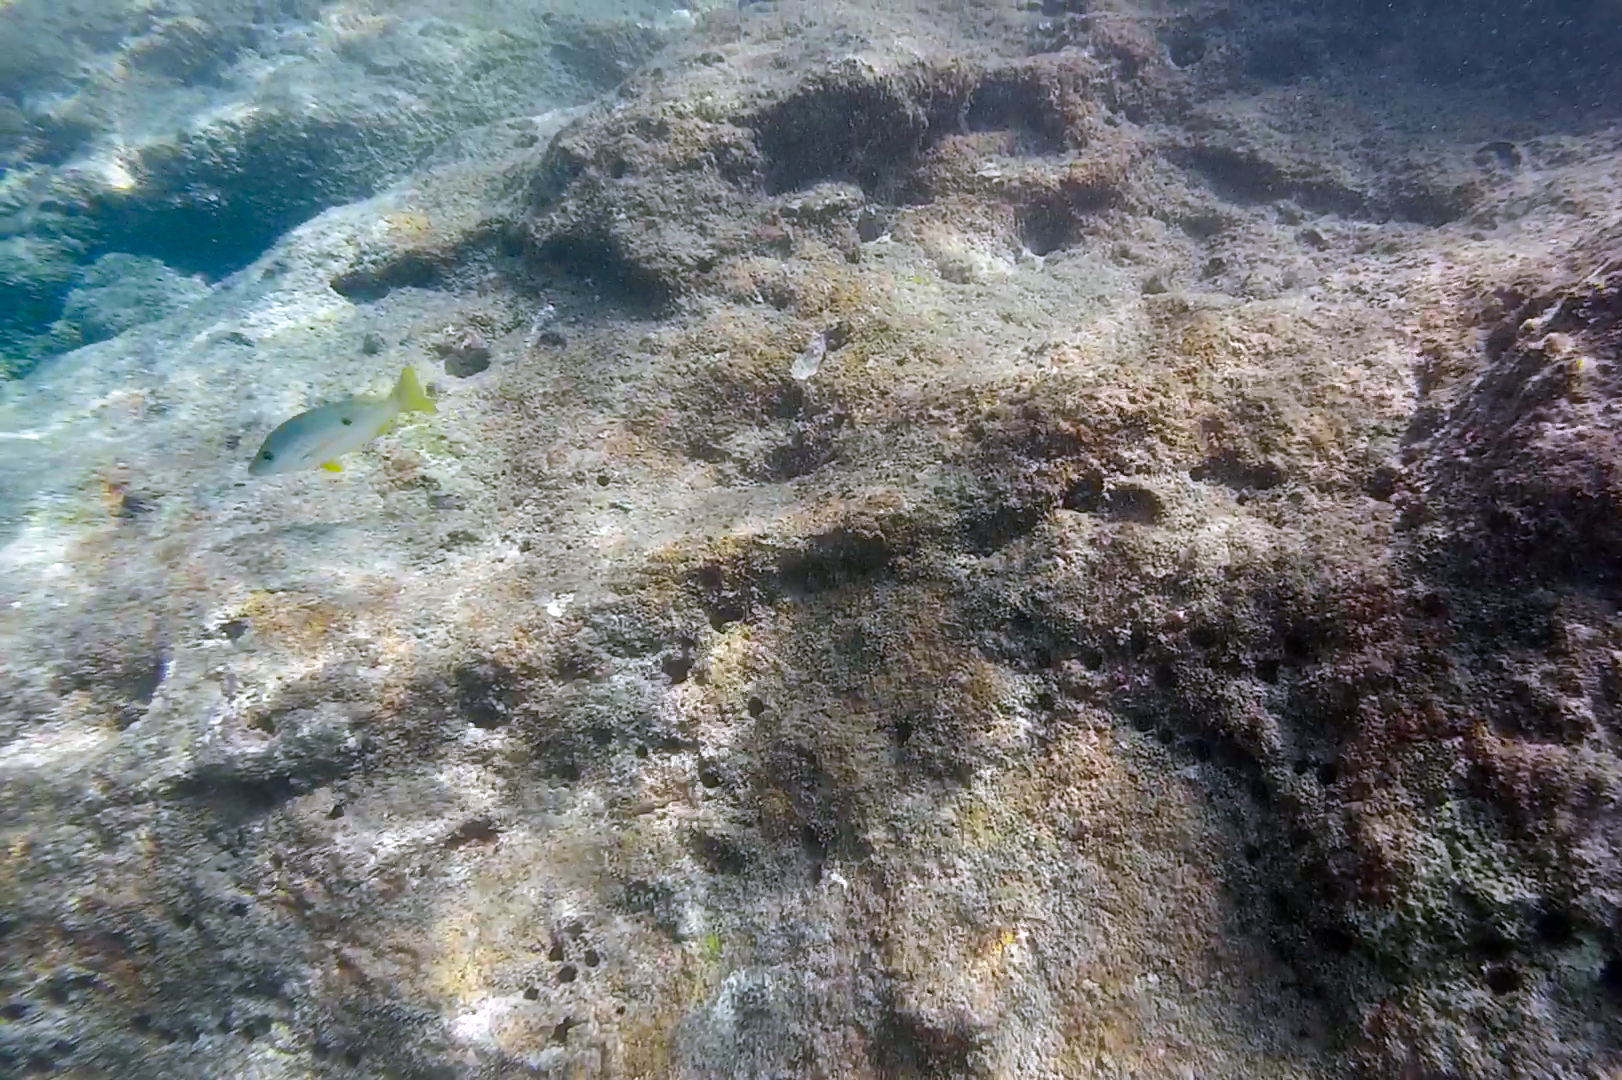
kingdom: Animalia
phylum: Chordata
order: Perciformes
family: Lutjanidae
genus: Lutjanus
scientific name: Lutjanus monostigma
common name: Onespot snapper
